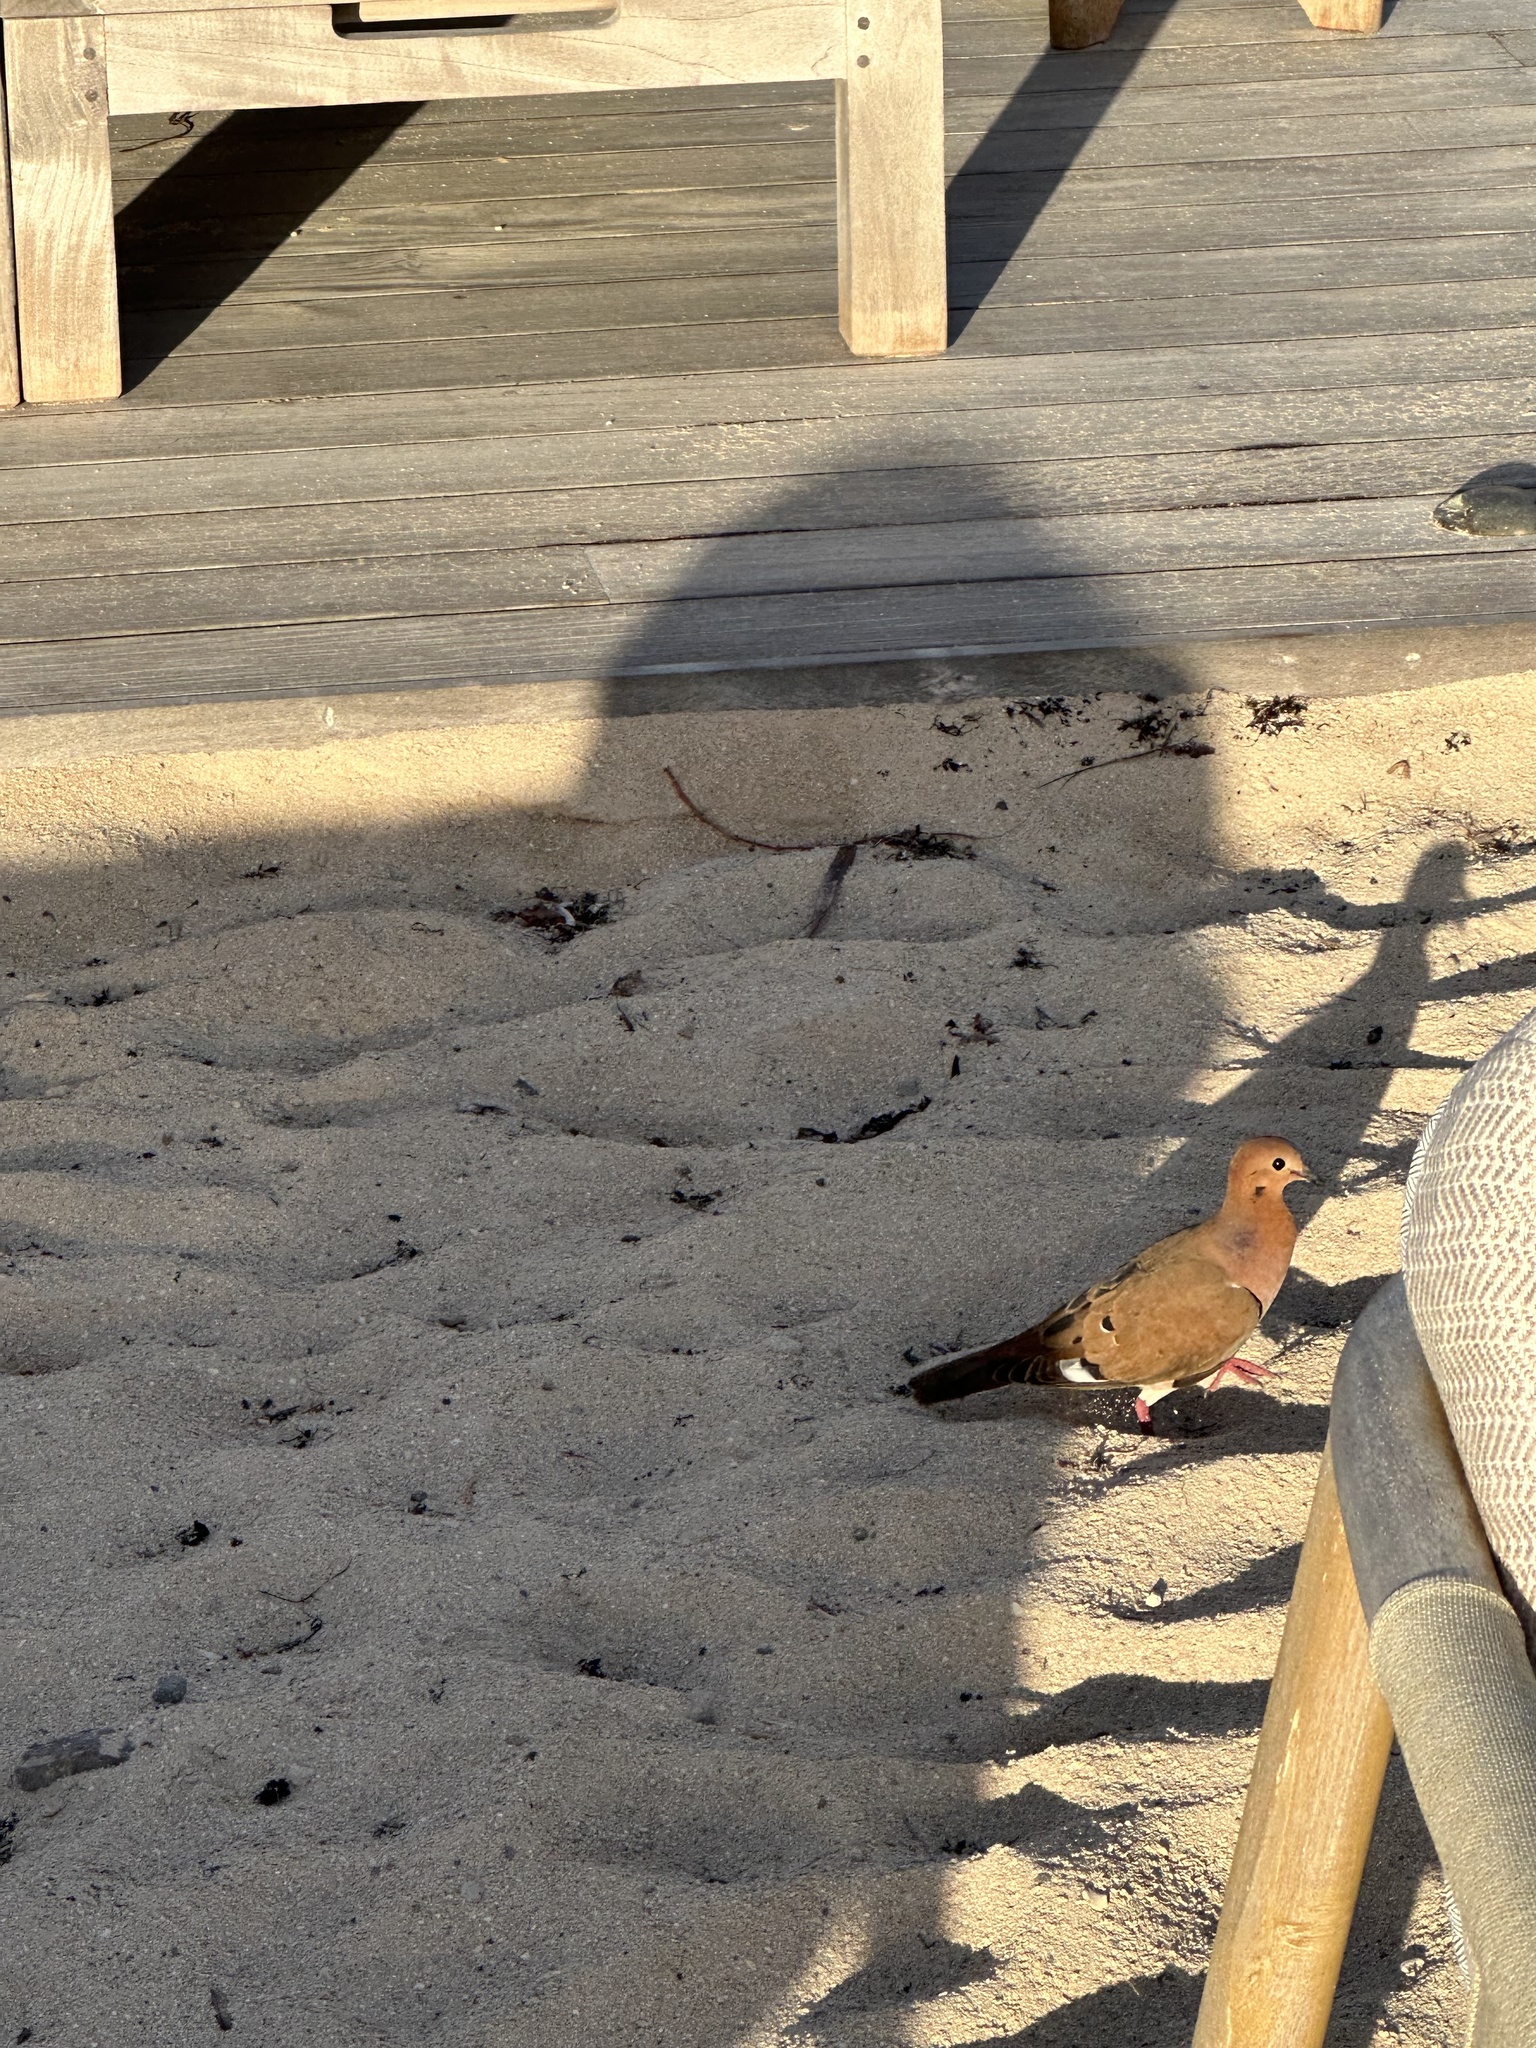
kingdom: Animalia
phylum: Chordata
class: Aves
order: Columbiformes
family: Columbidae
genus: Zenaida
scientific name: Zenaida aurita
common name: Zenaida dove
